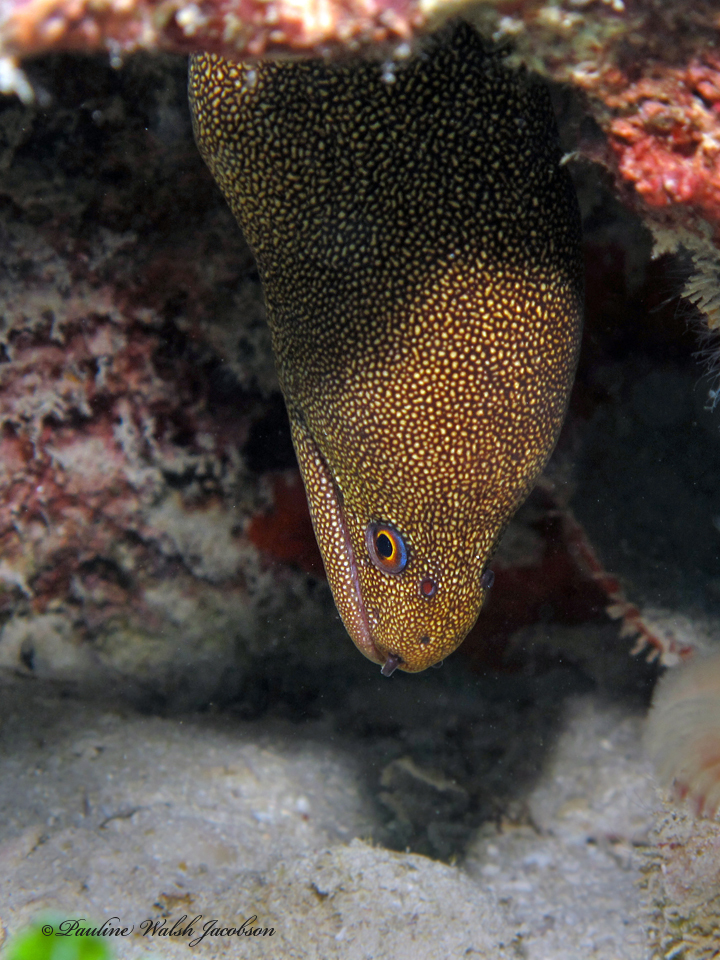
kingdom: Animalia
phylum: Chordata
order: Anguilliformes
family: Muraenidae
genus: Gymnothorax
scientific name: Gymnothorax miliaris
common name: Goldentail moray
